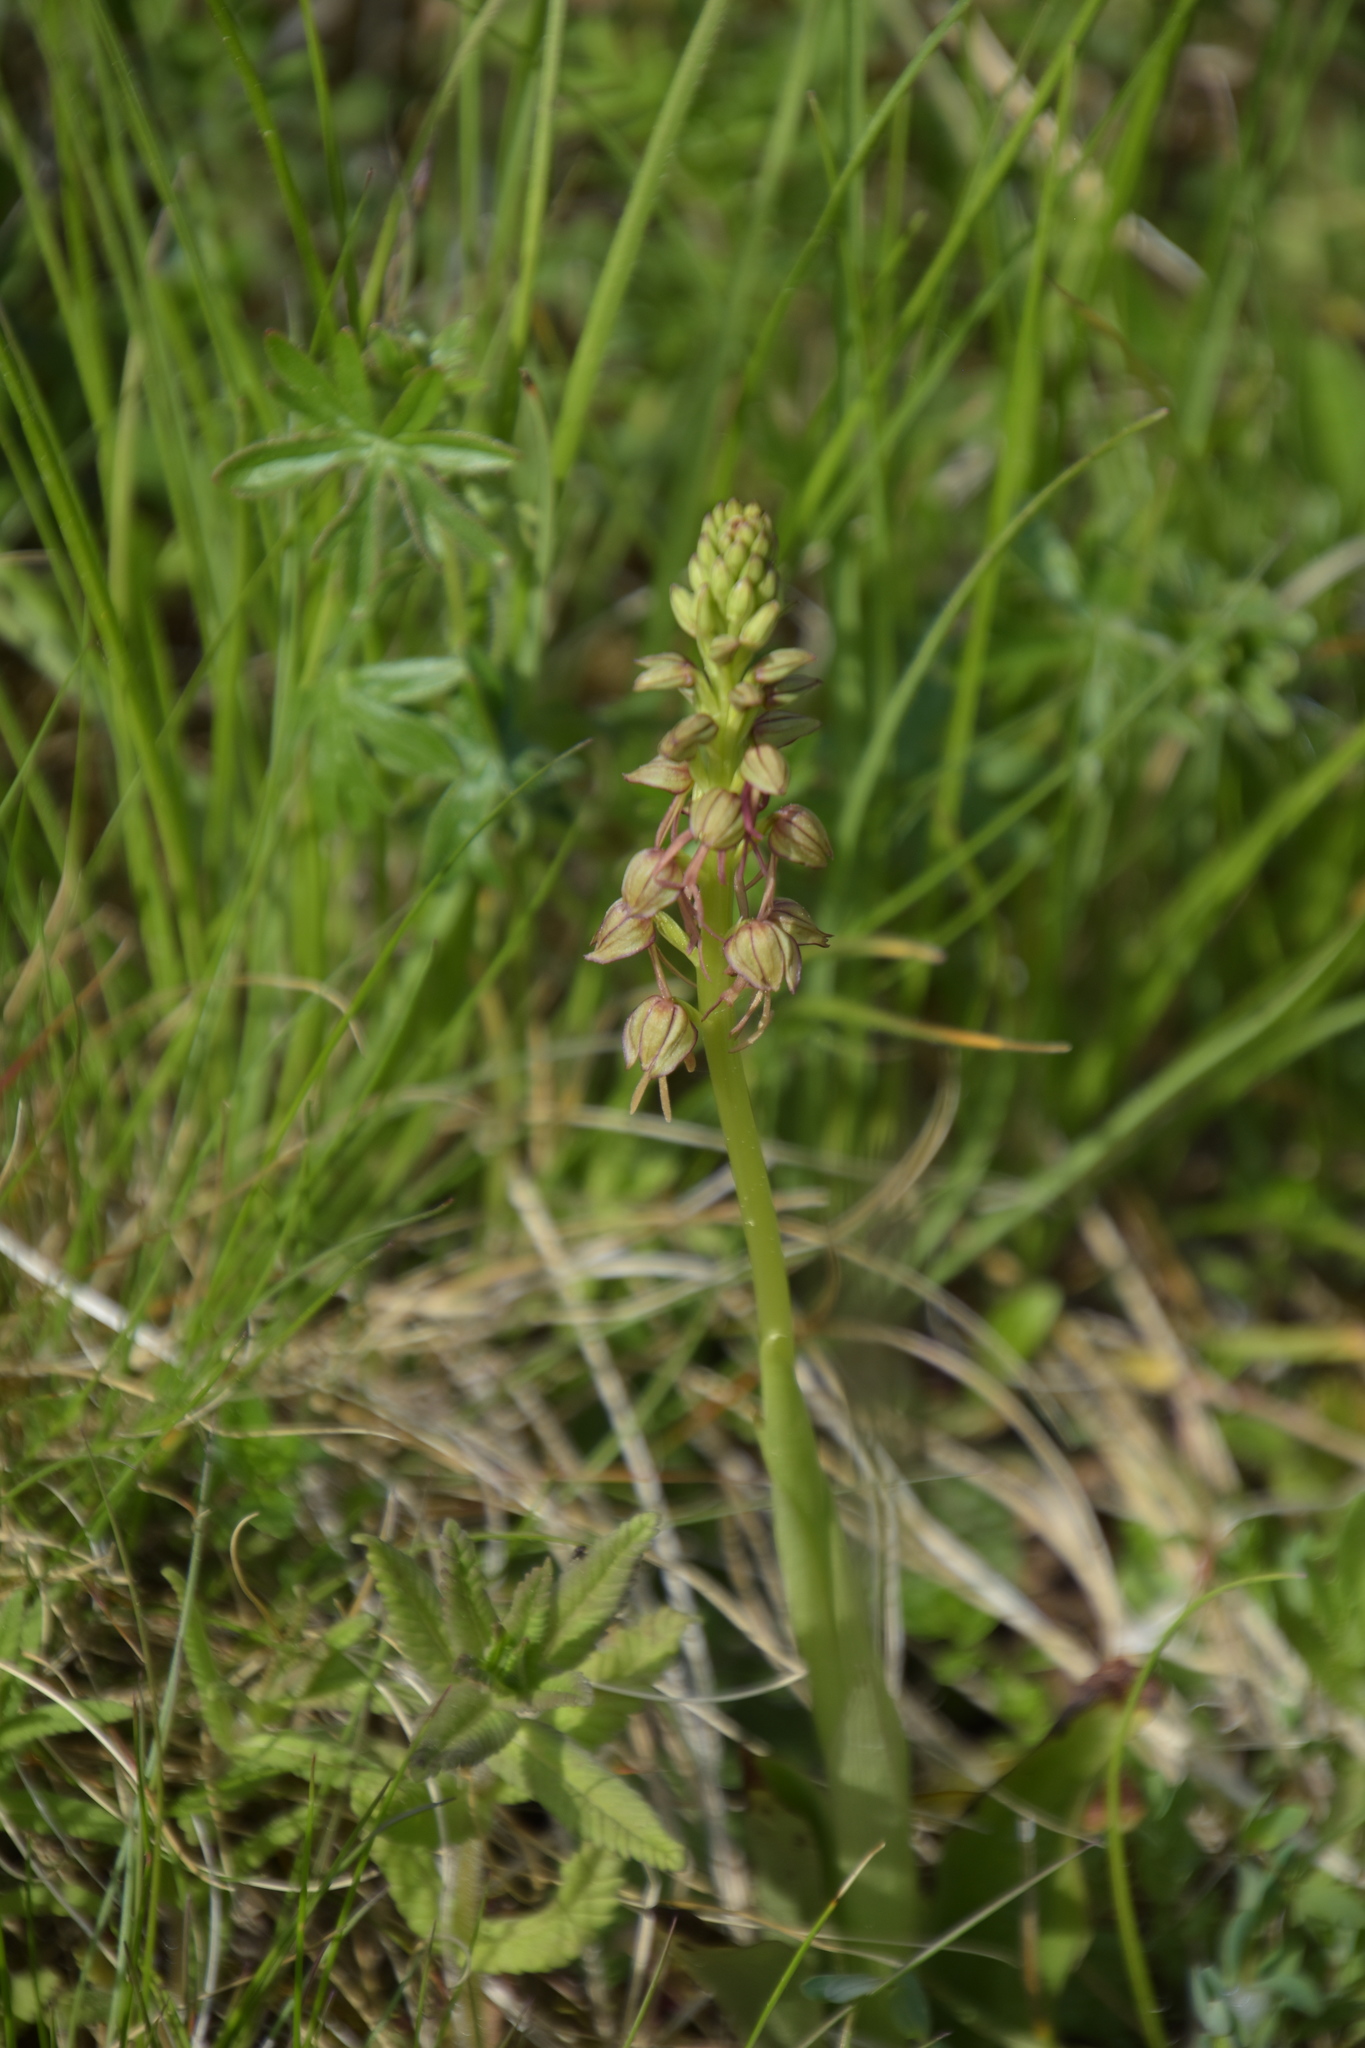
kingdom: Plantae
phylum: Tracheophyta
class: Liliopsida
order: Asparagales
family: Orchidaceae
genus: Orchis
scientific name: Orchis anthropophora
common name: Man orchid
